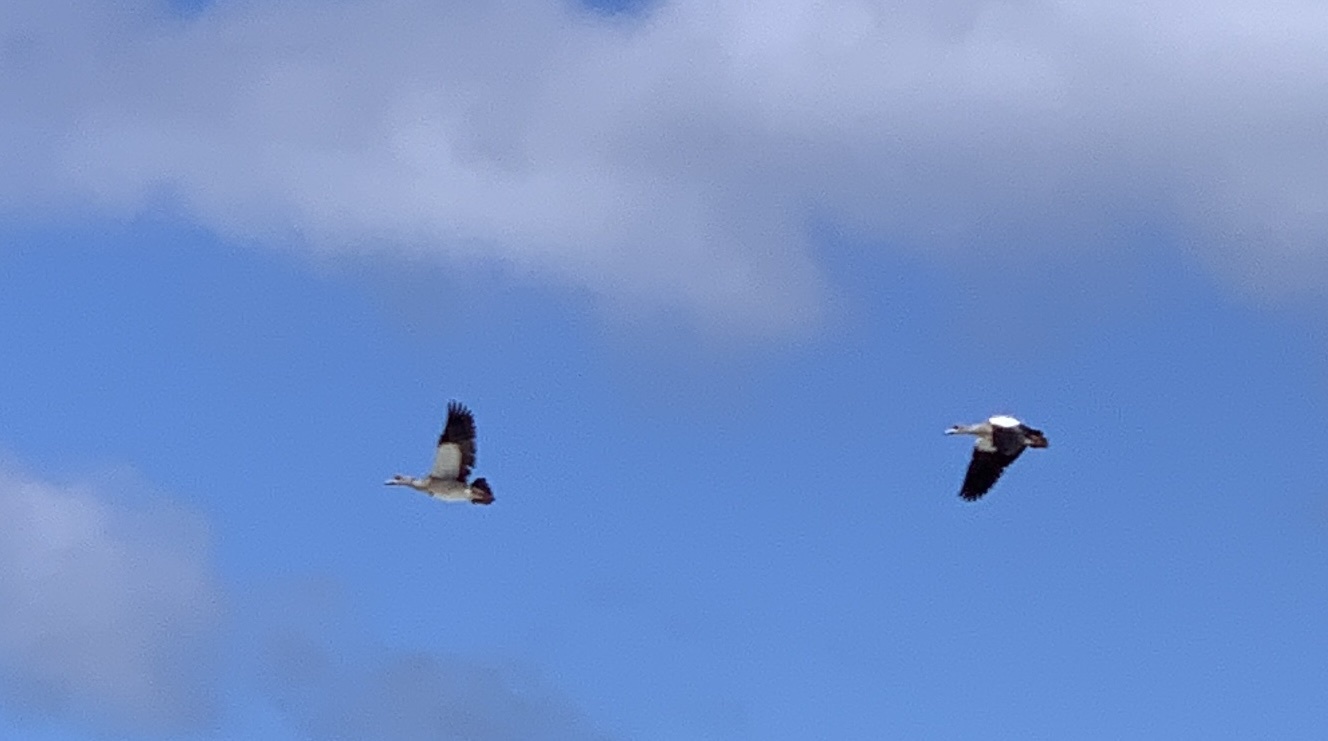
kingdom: Animalia
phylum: Chordata
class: Aves
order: Anseriformes
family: Anatidae
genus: Alopochen
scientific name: Alopochen aegyptiaca
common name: Egyptian goose
